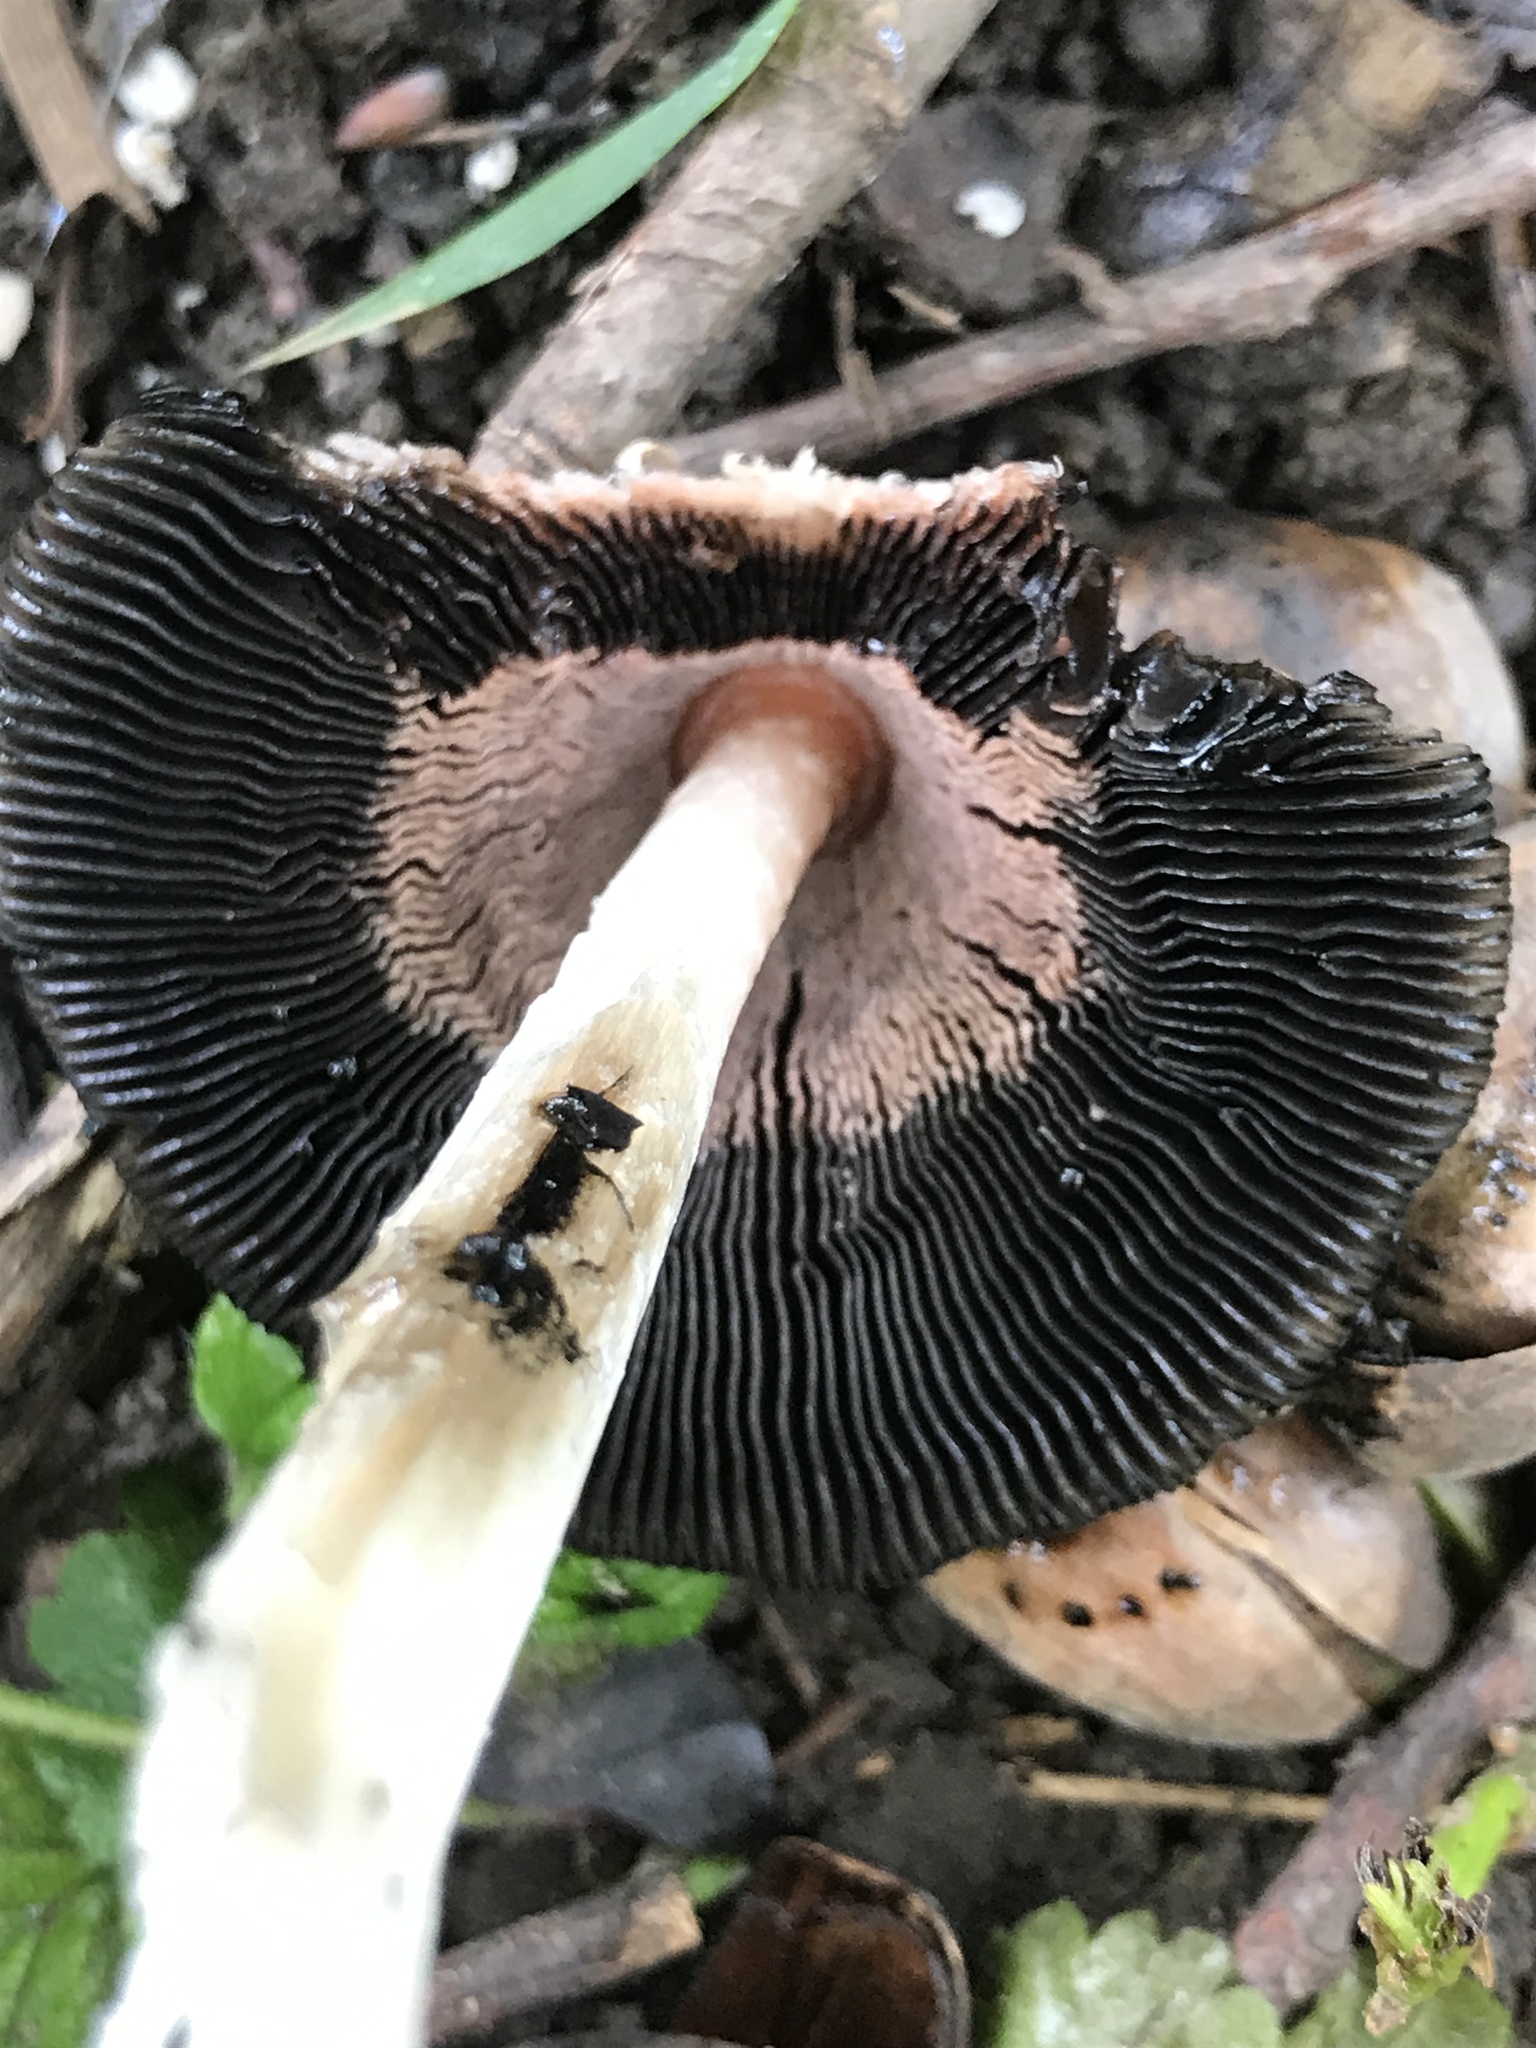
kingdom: Fungi
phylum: Basidiomycota
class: Agaricomycetes
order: Agaricales
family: Agaricaceae
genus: Coprinus
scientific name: Coprinus comatus
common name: Lawyer's wig
